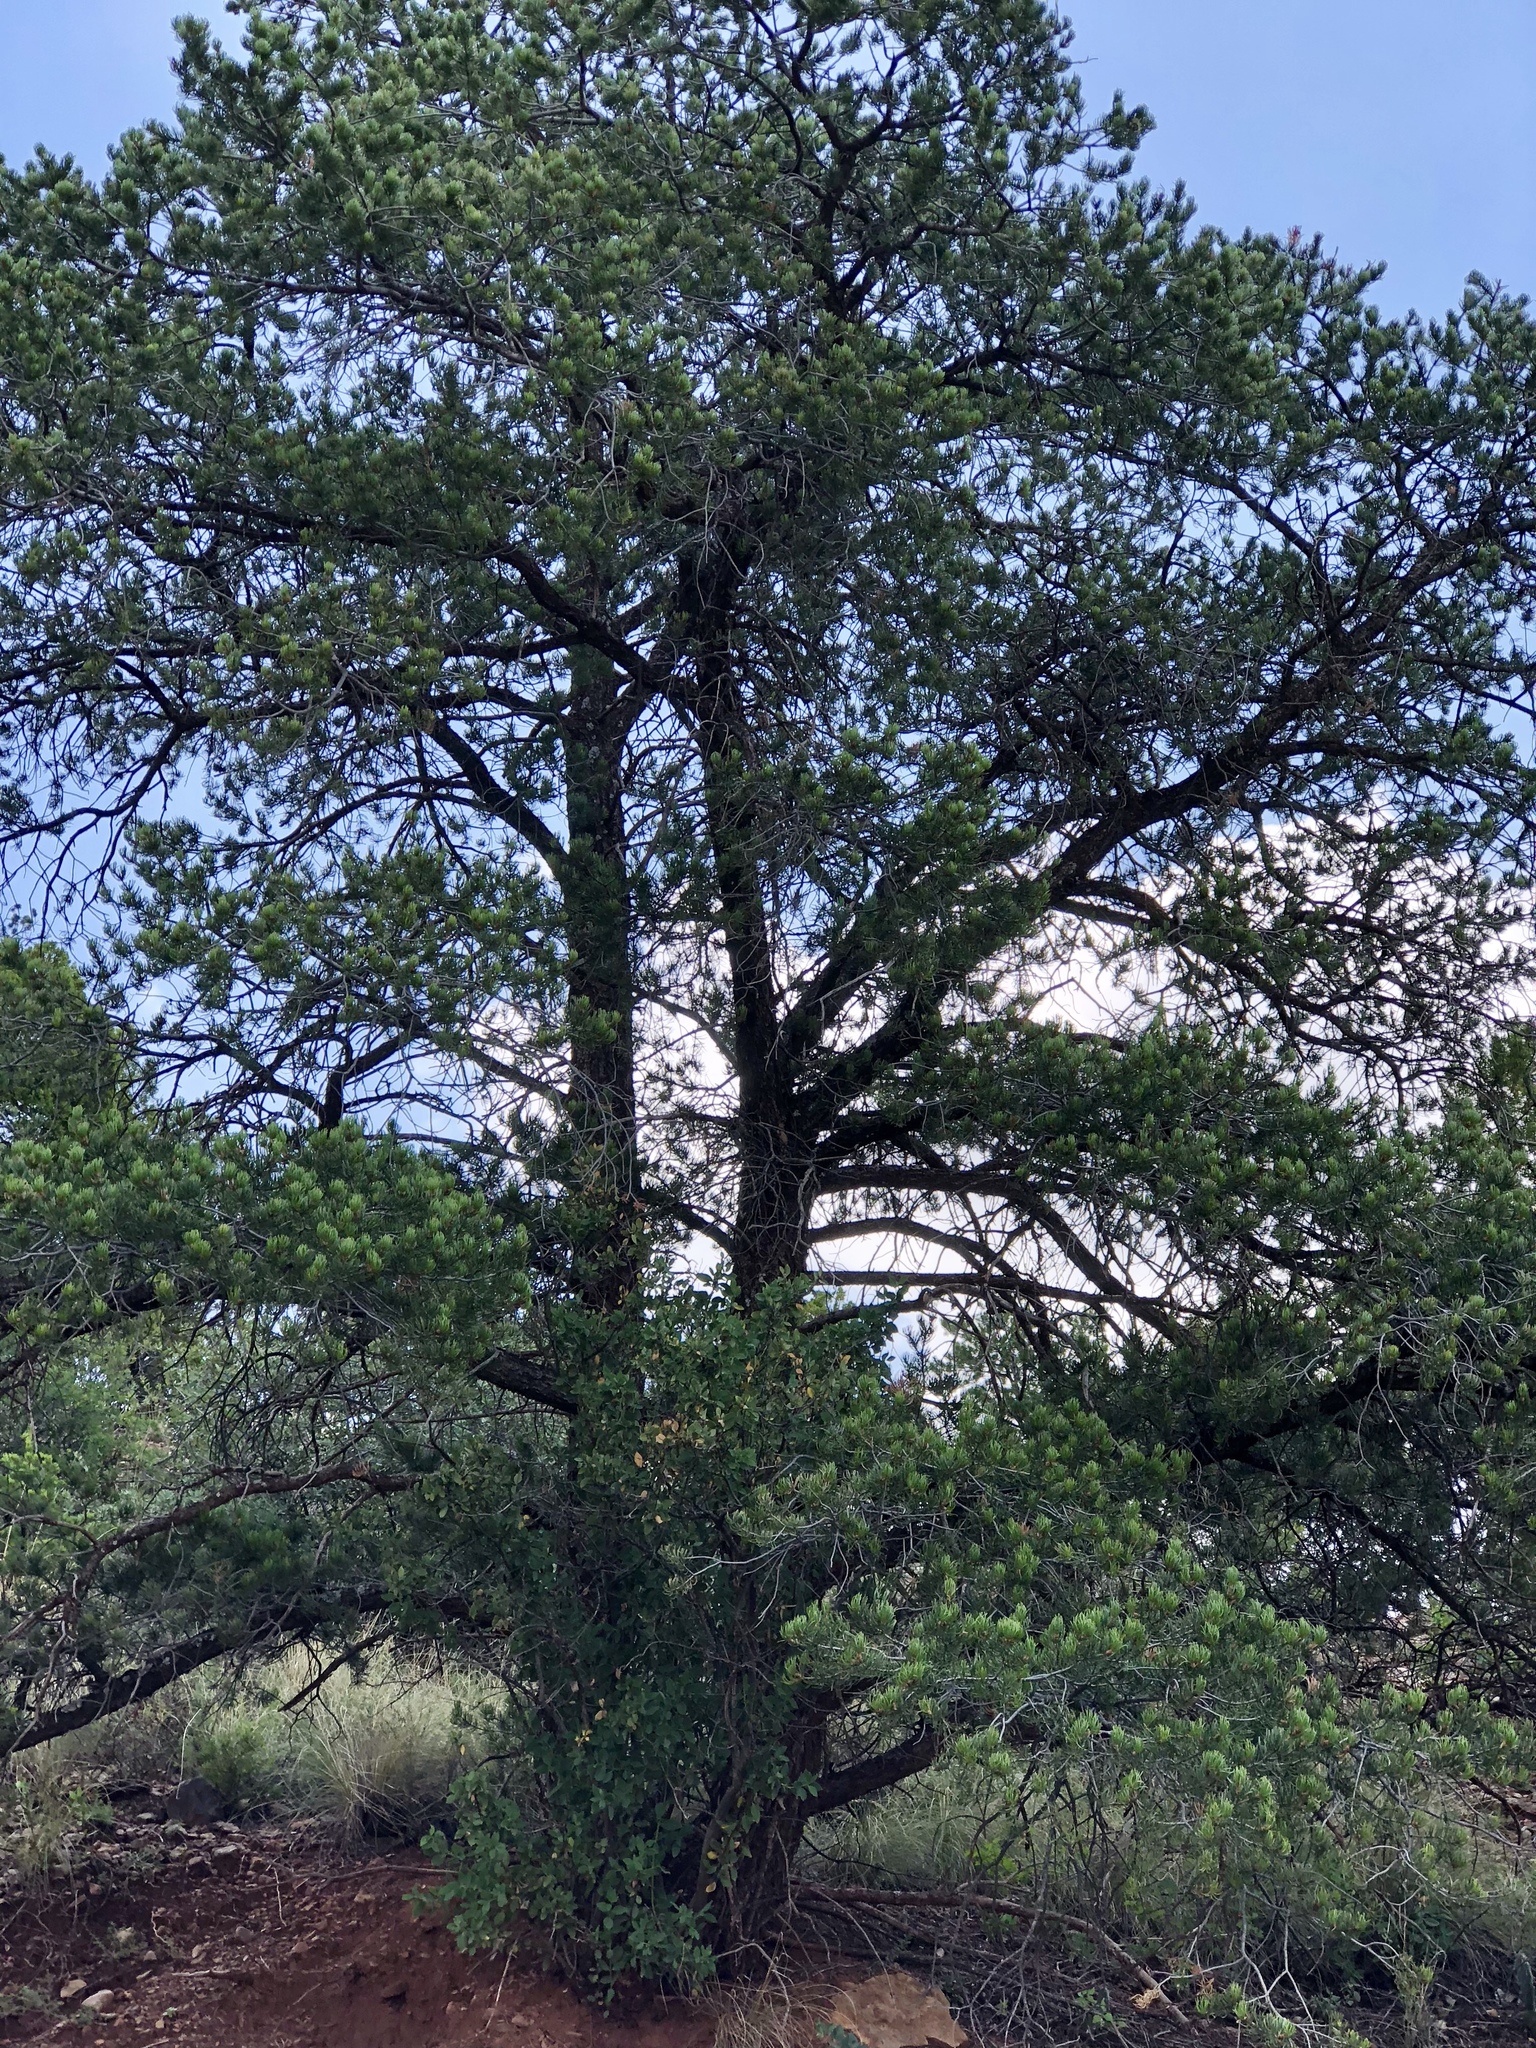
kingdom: Plantae
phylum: Tracheophyta
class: Pinopsida
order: Pinales
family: Pinaceae
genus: Pinus
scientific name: Pinus edulis
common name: Colorado pinyon
